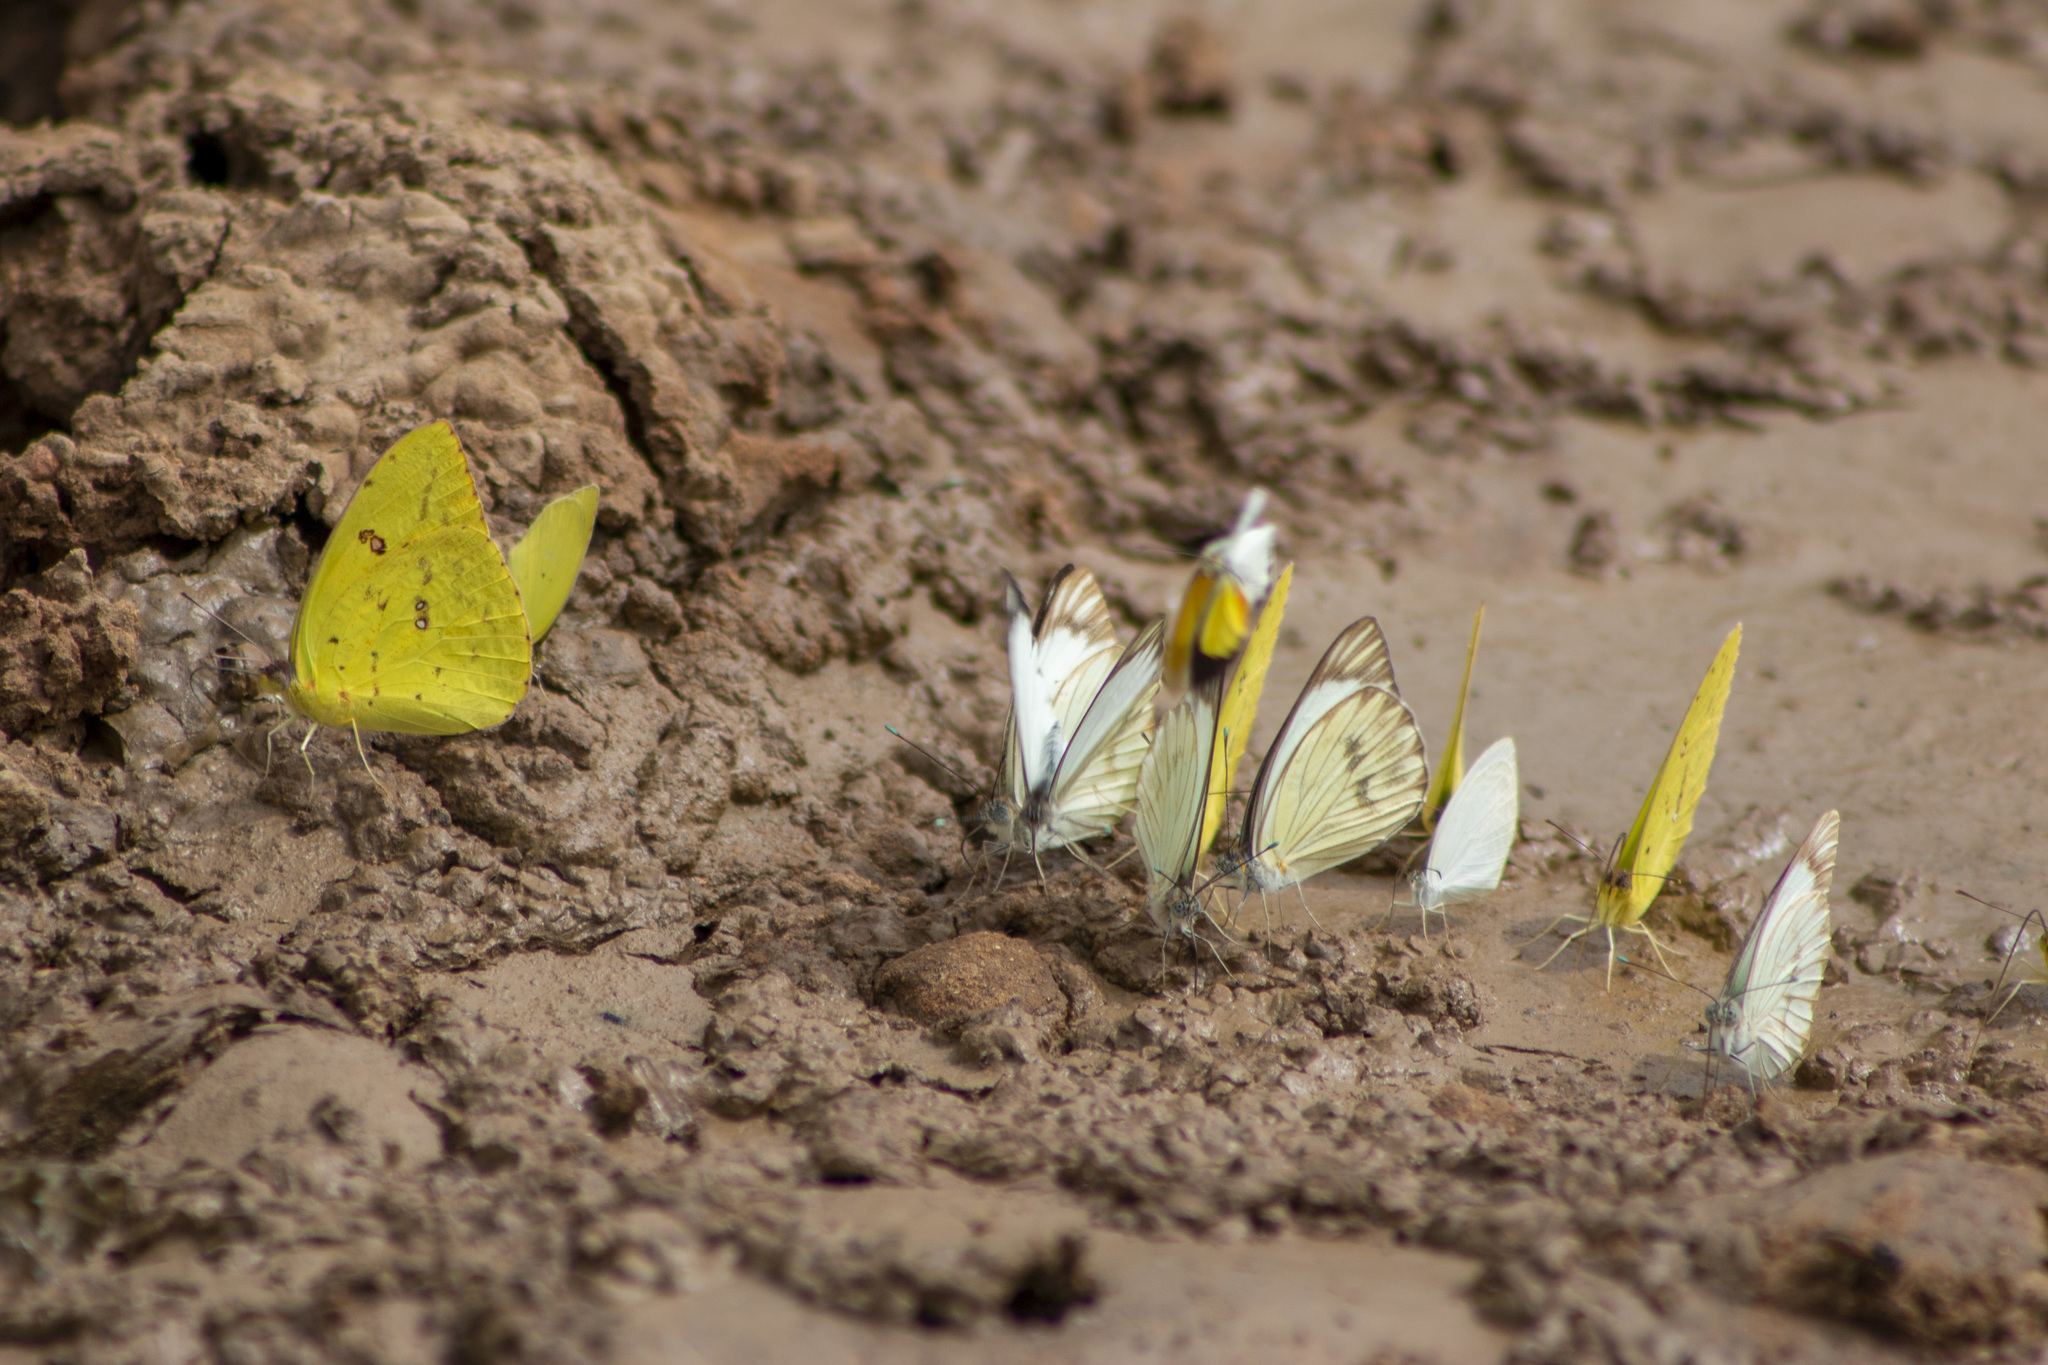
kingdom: Animalia
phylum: Arthropoda
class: Insecta
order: Lepidoptera
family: Pieridae
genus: Phoebis
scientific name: Phoebis marcellina
